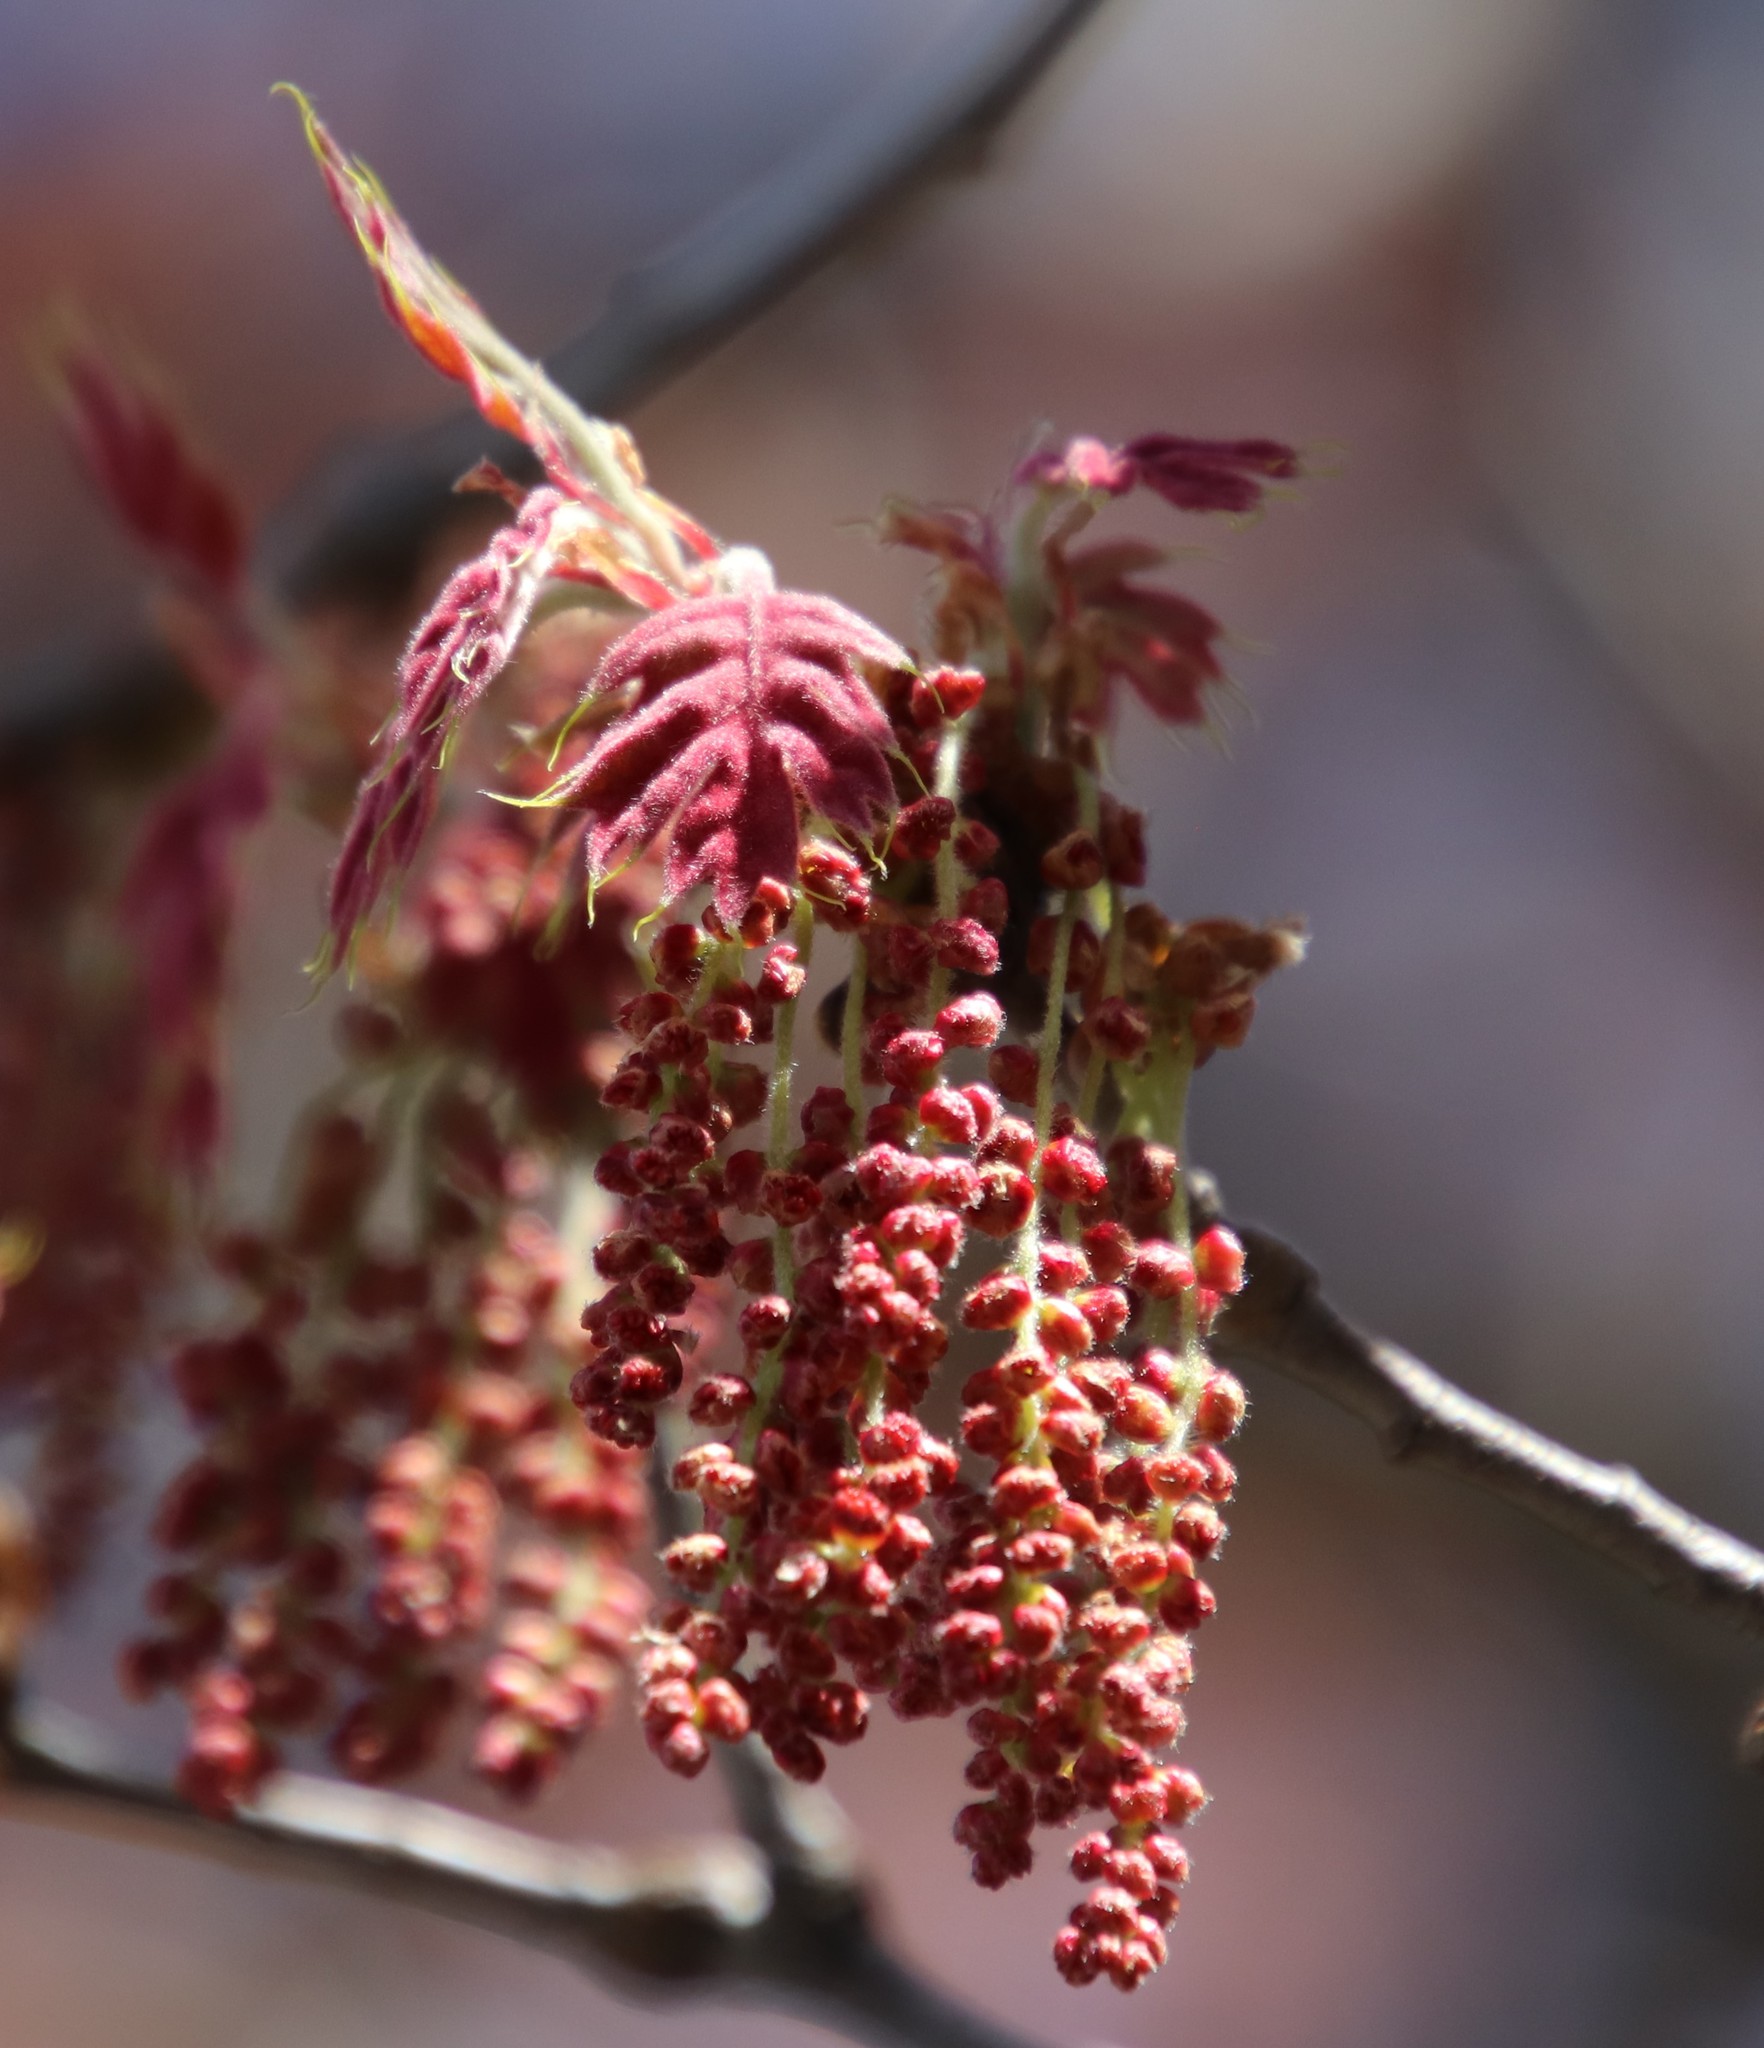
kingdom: Plantae
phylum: Tracheophyta
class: Magnoliopsida
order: Fagales
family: Fagaceae
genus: Quercus
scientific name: Quercus kelloggii
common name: California black oak
